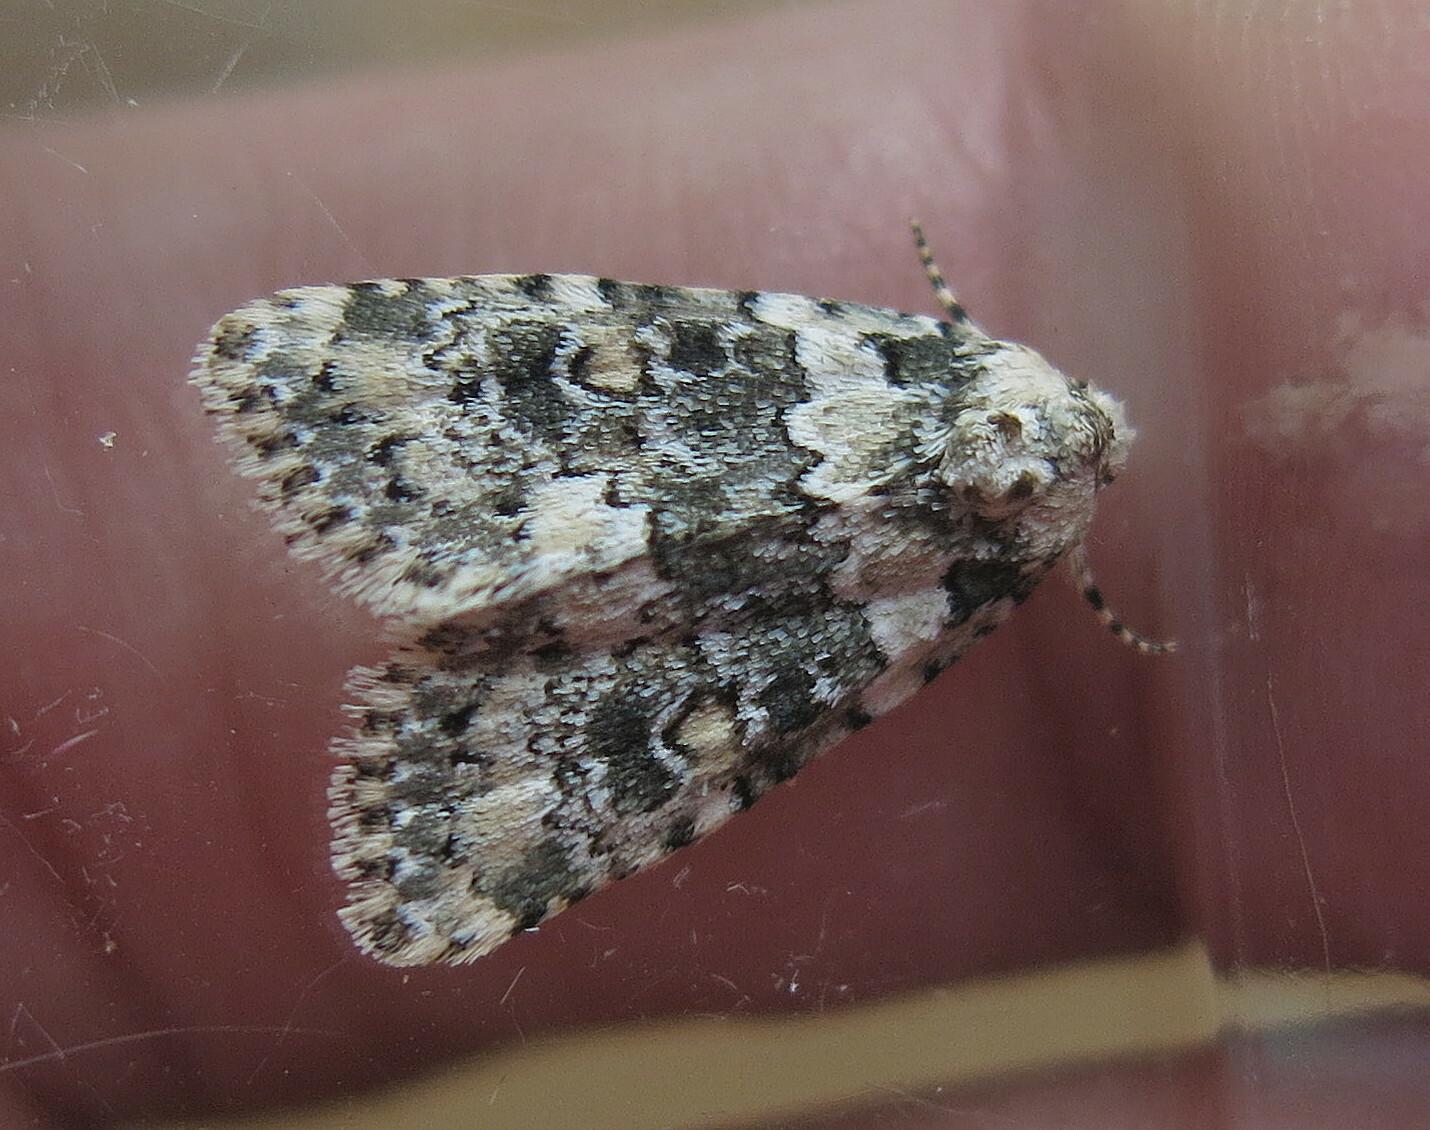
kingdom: Animalia
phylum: Arthropoda
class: Insecta
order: Lepidoptera
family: Noctuidae
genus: Bryophila
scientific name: Bryophila domestica
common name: Marbled beauty
